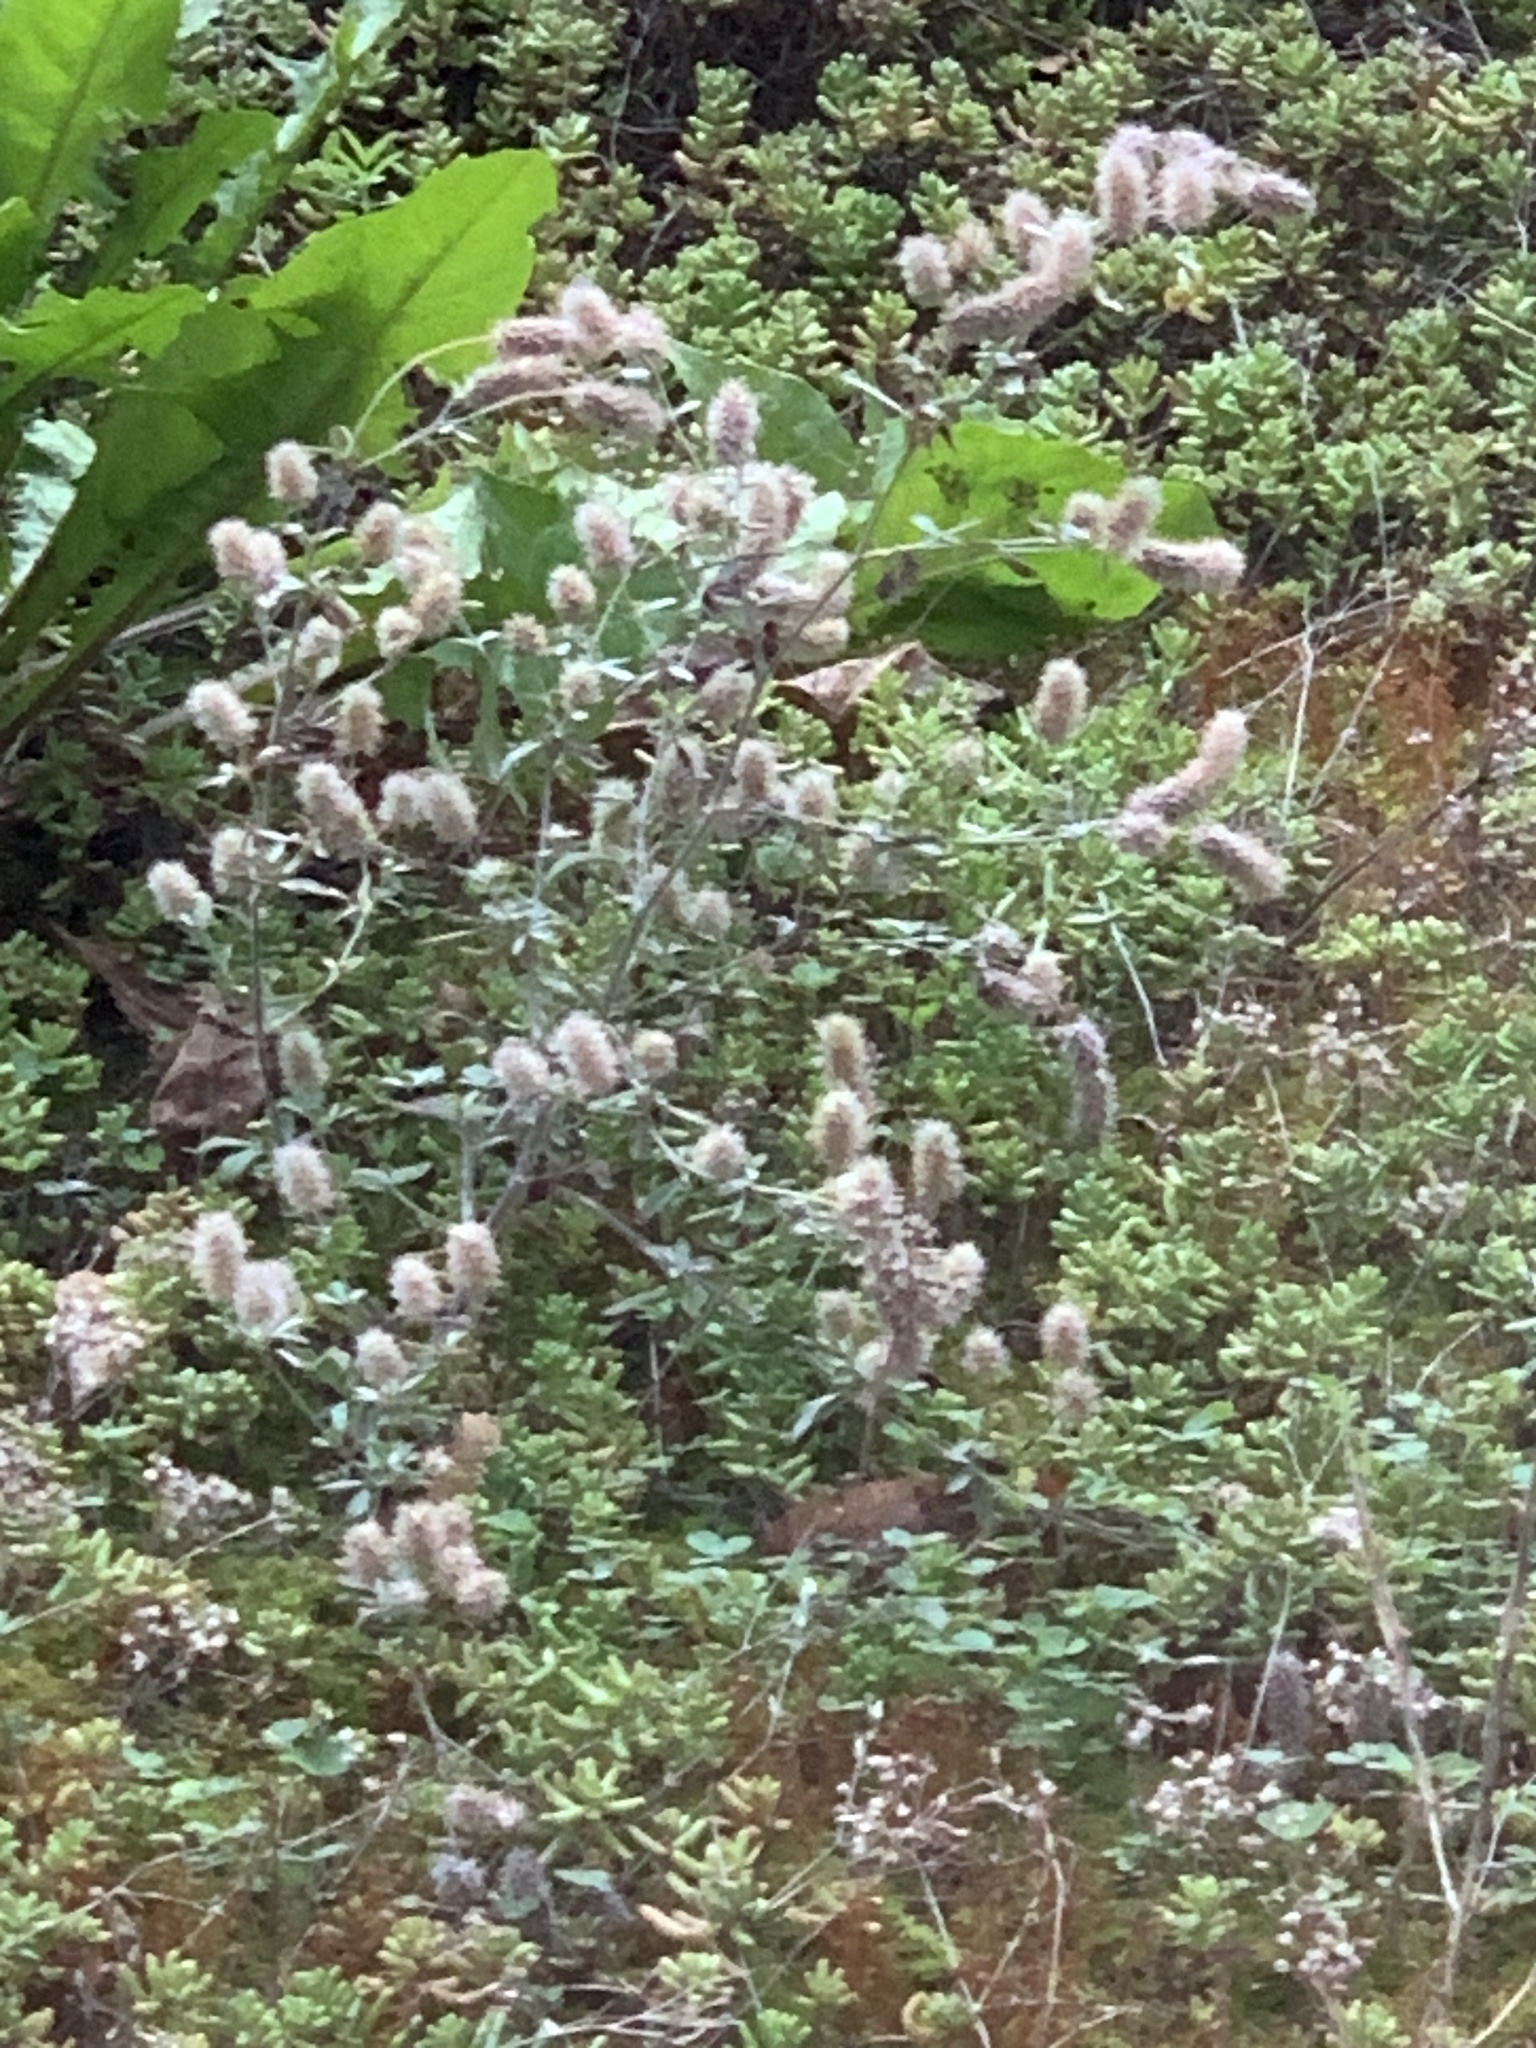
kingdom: Plantae
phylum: Tracheophyta
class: Magnoliopsida
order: Fabales
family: Fabaceae
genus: Trifolium
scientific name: Trifolium arvense
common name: Hare's-foot clover
